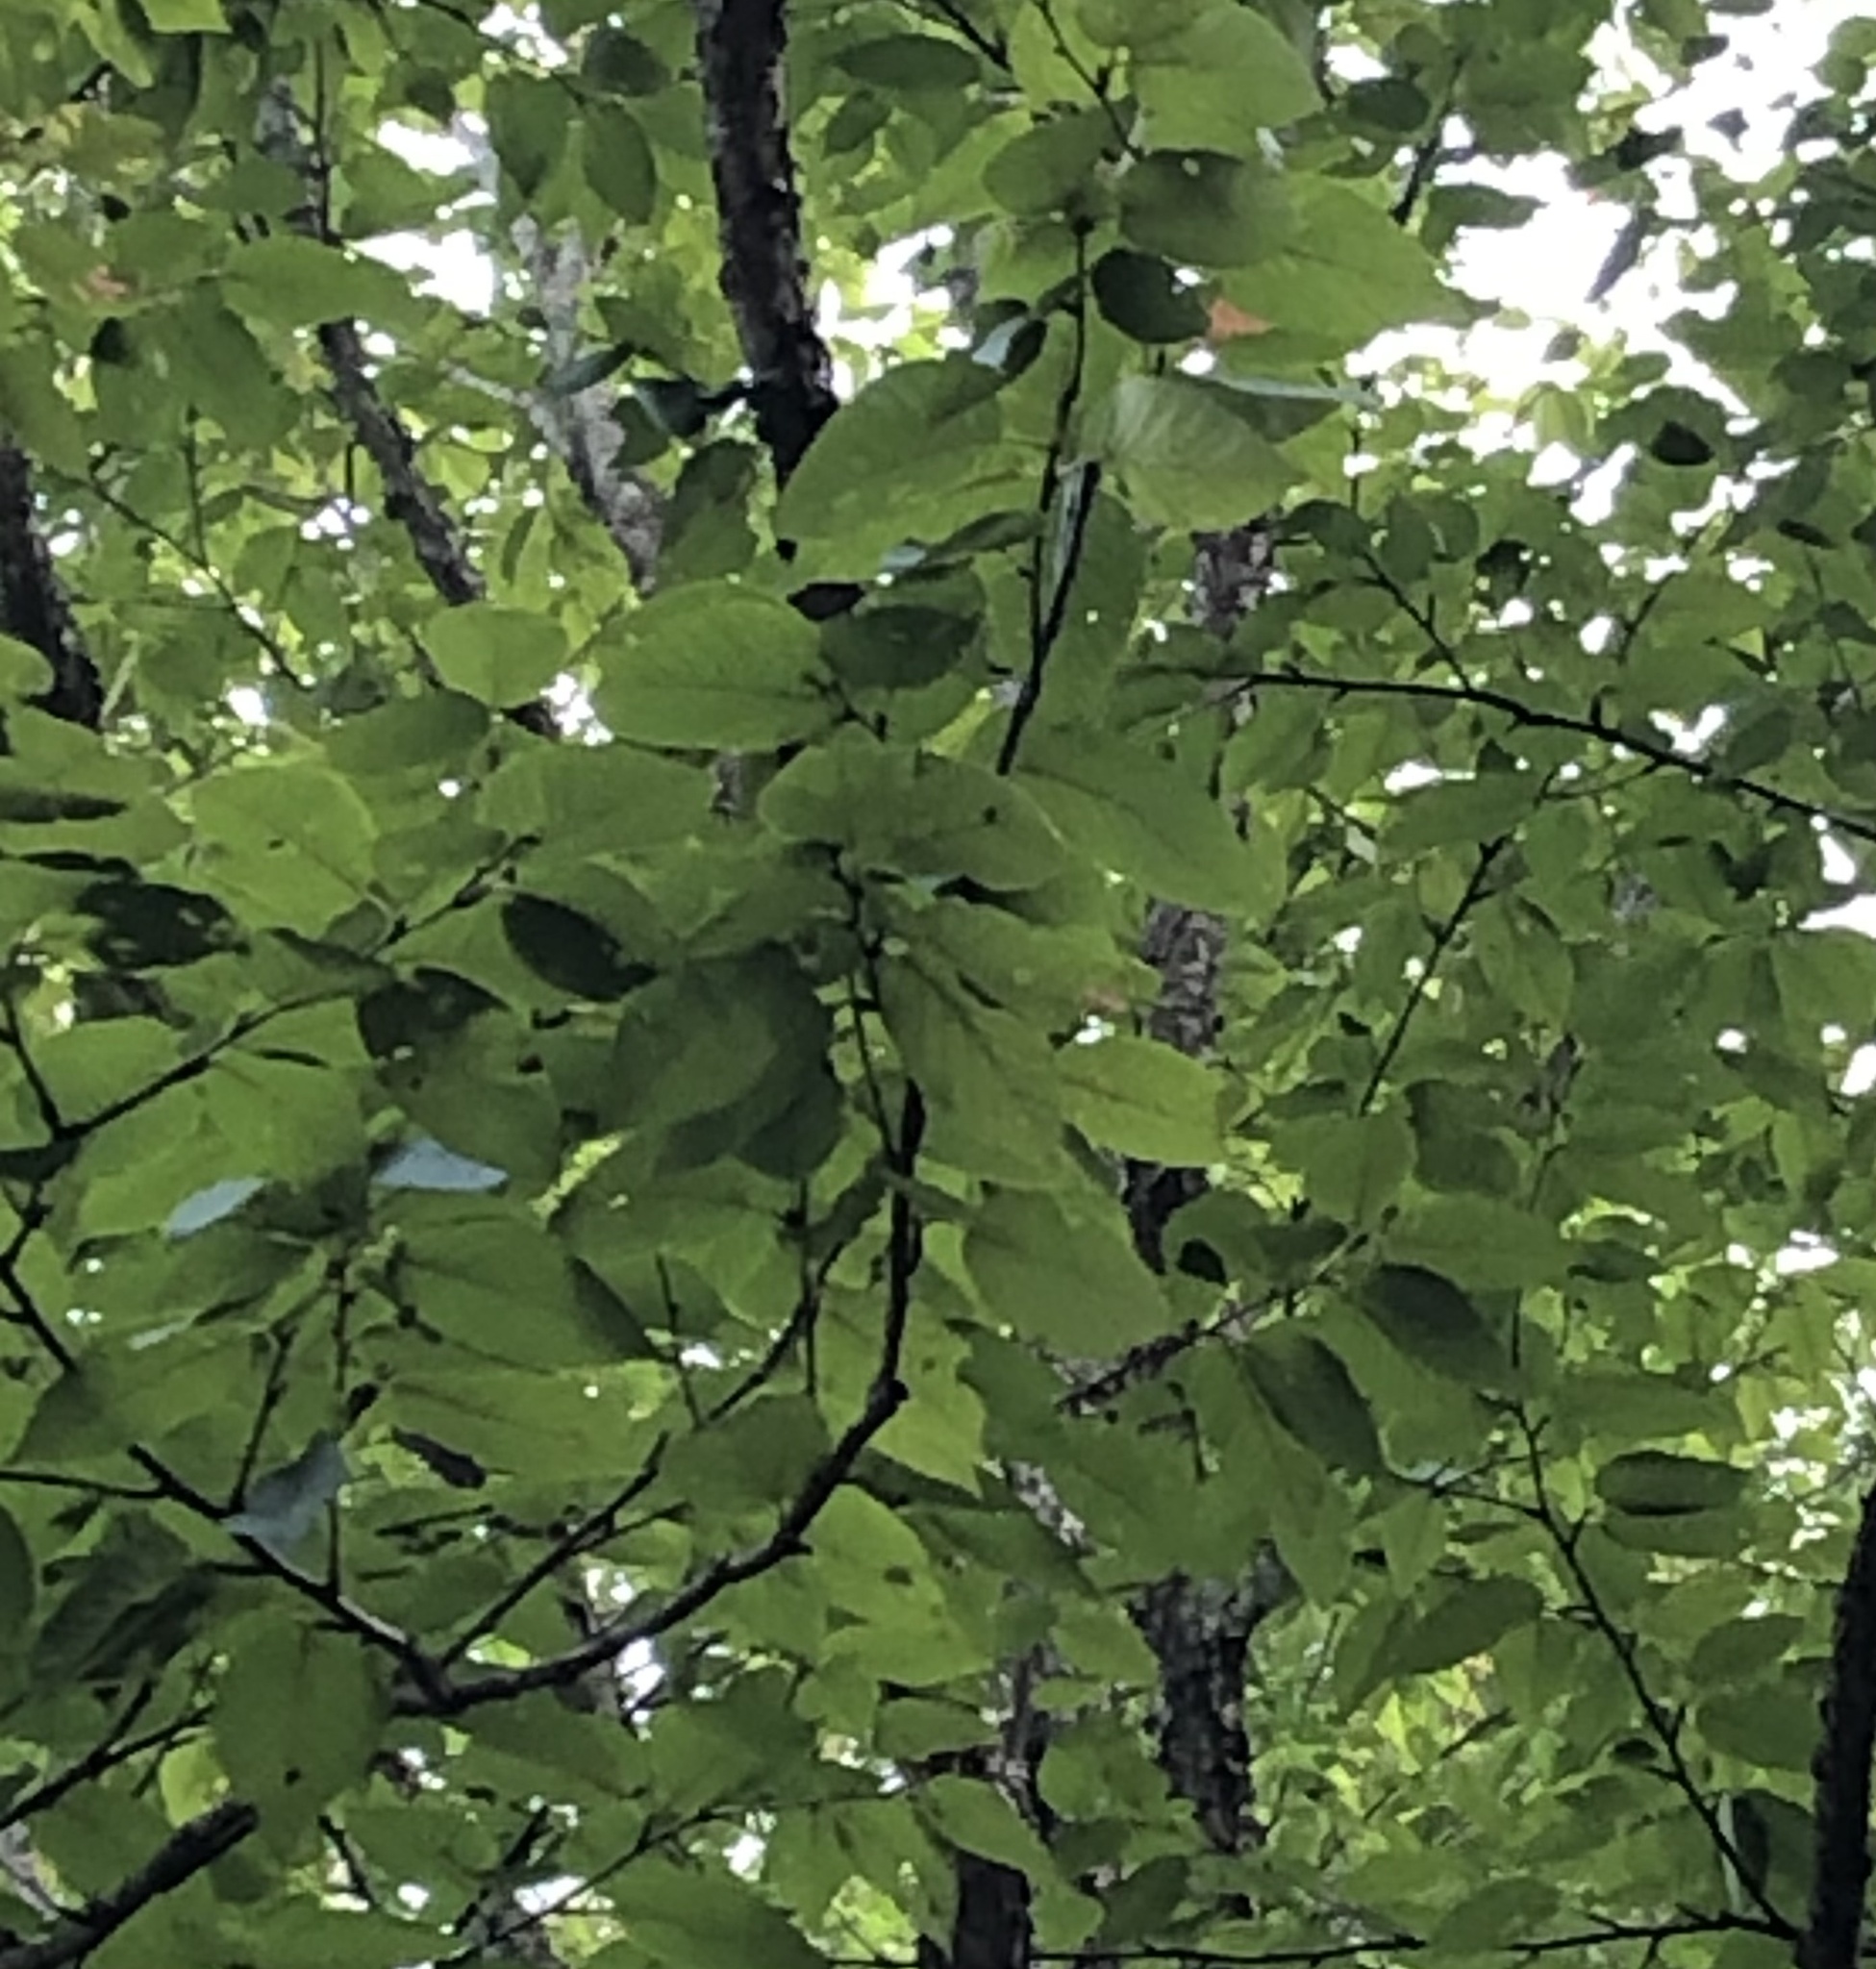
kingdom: Plantae
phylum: Tracheophyta
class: Magnoliopsida
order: Fagales
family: Betulaceae
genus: Betula
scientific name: Betula alleghaniensis
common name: Yellow birch
